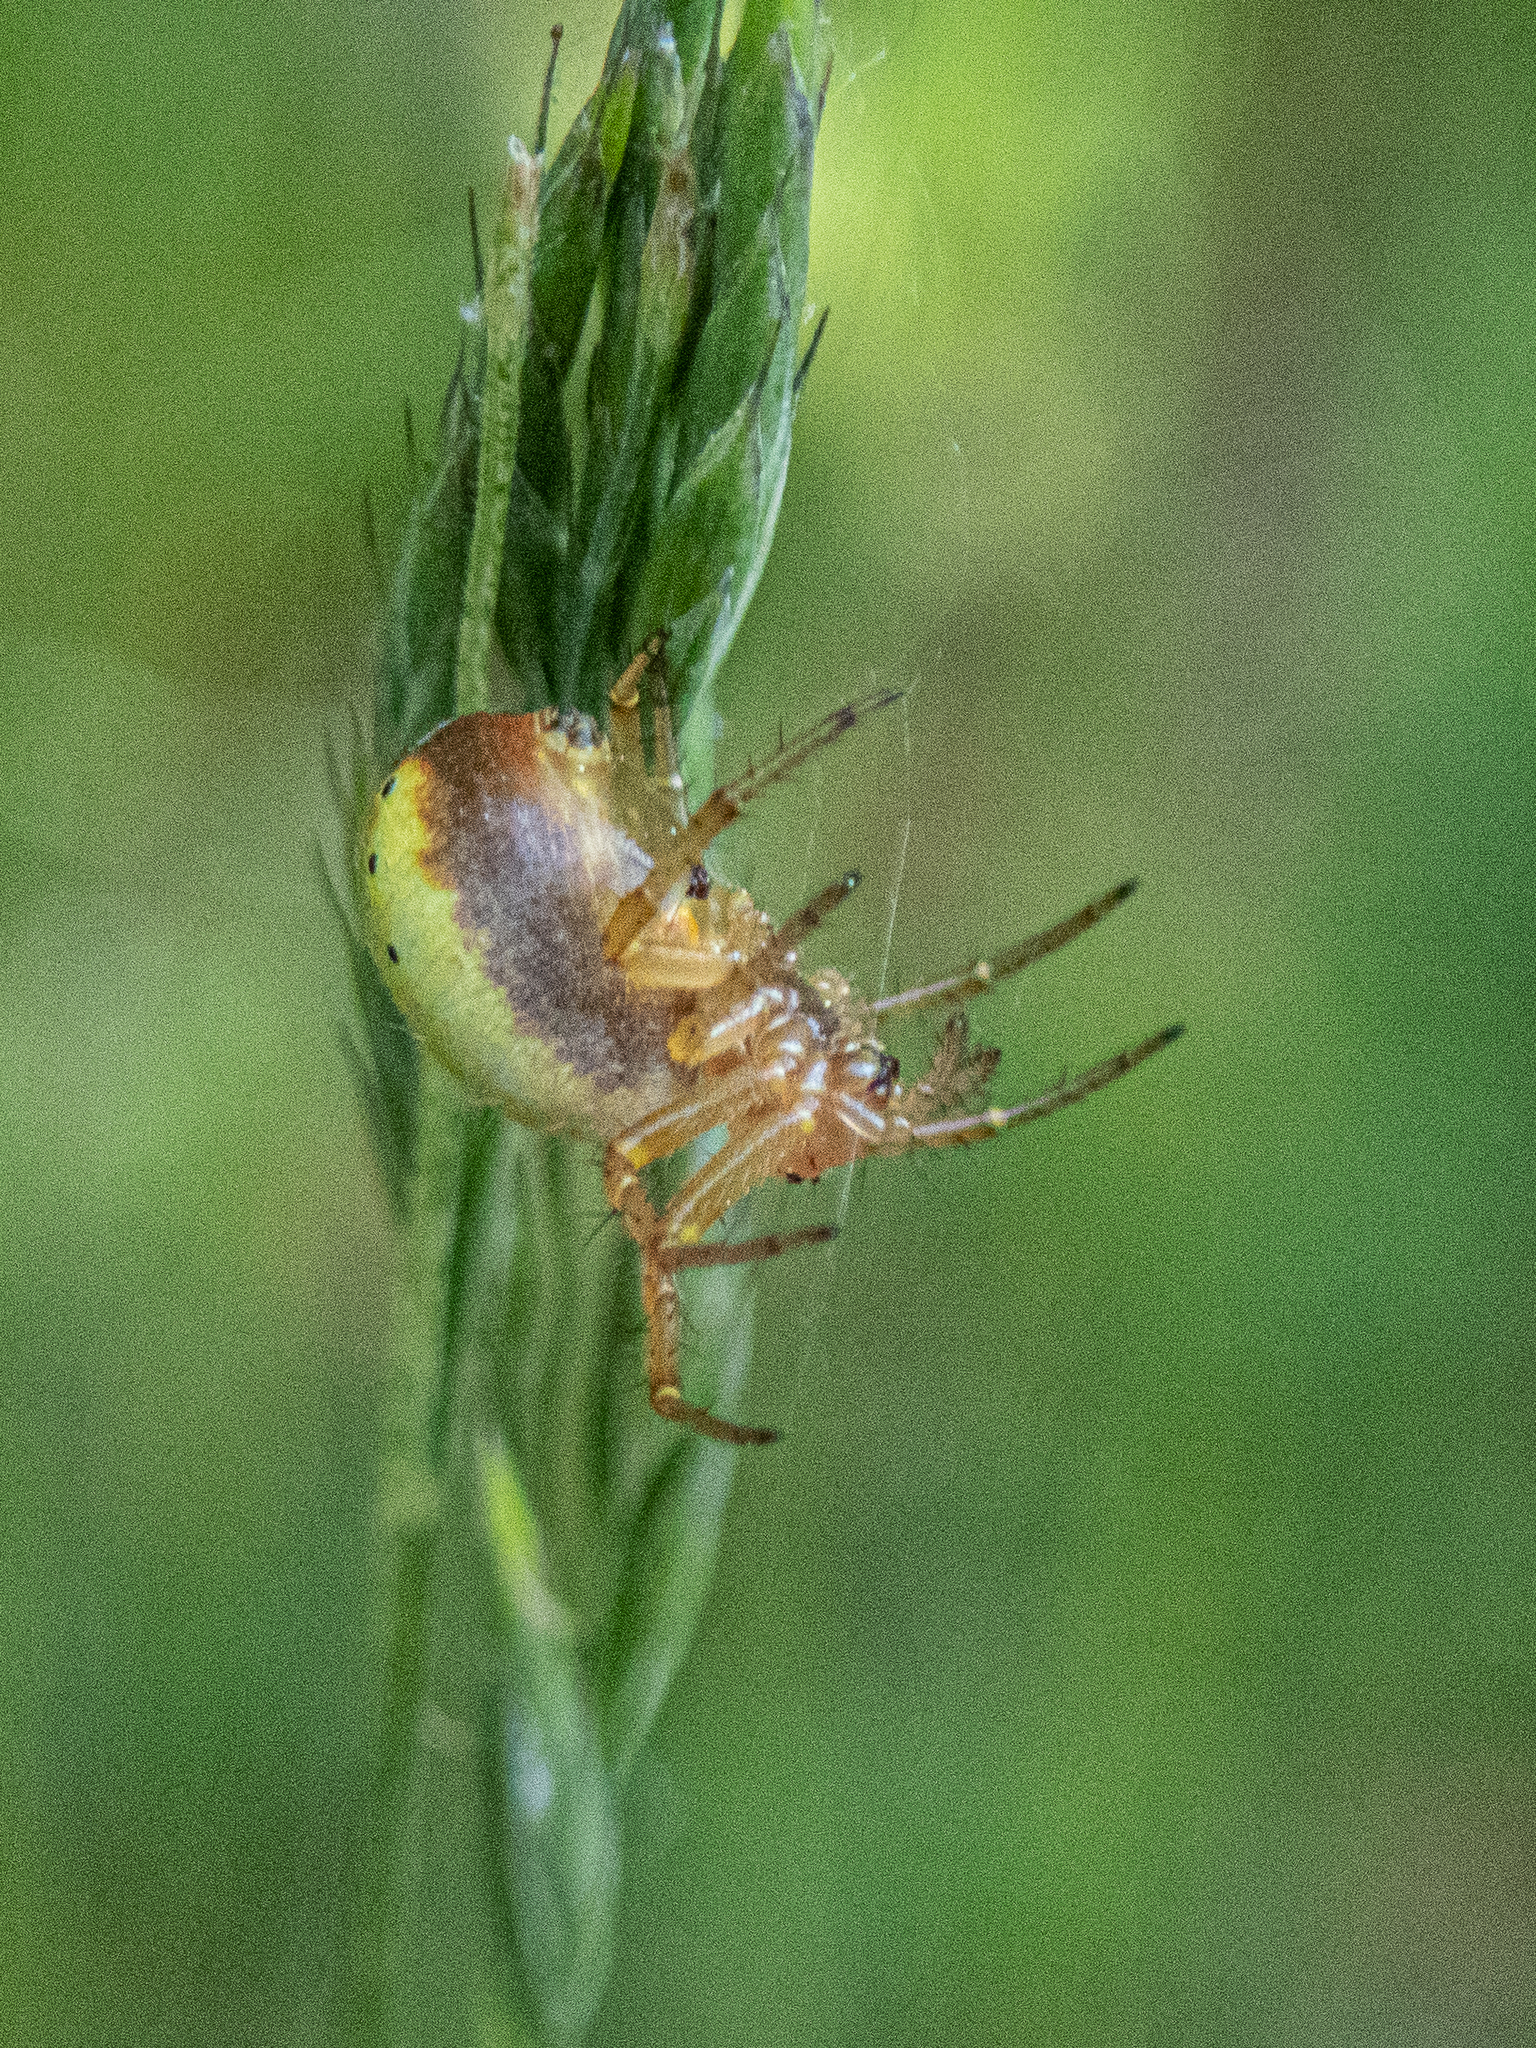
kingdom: Animalia
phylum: Arthropoda
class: Arachnida
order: Araneae
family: Araneidae
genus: Araniella
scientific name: Araniella displicata
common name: Sixspotted orb weaver
